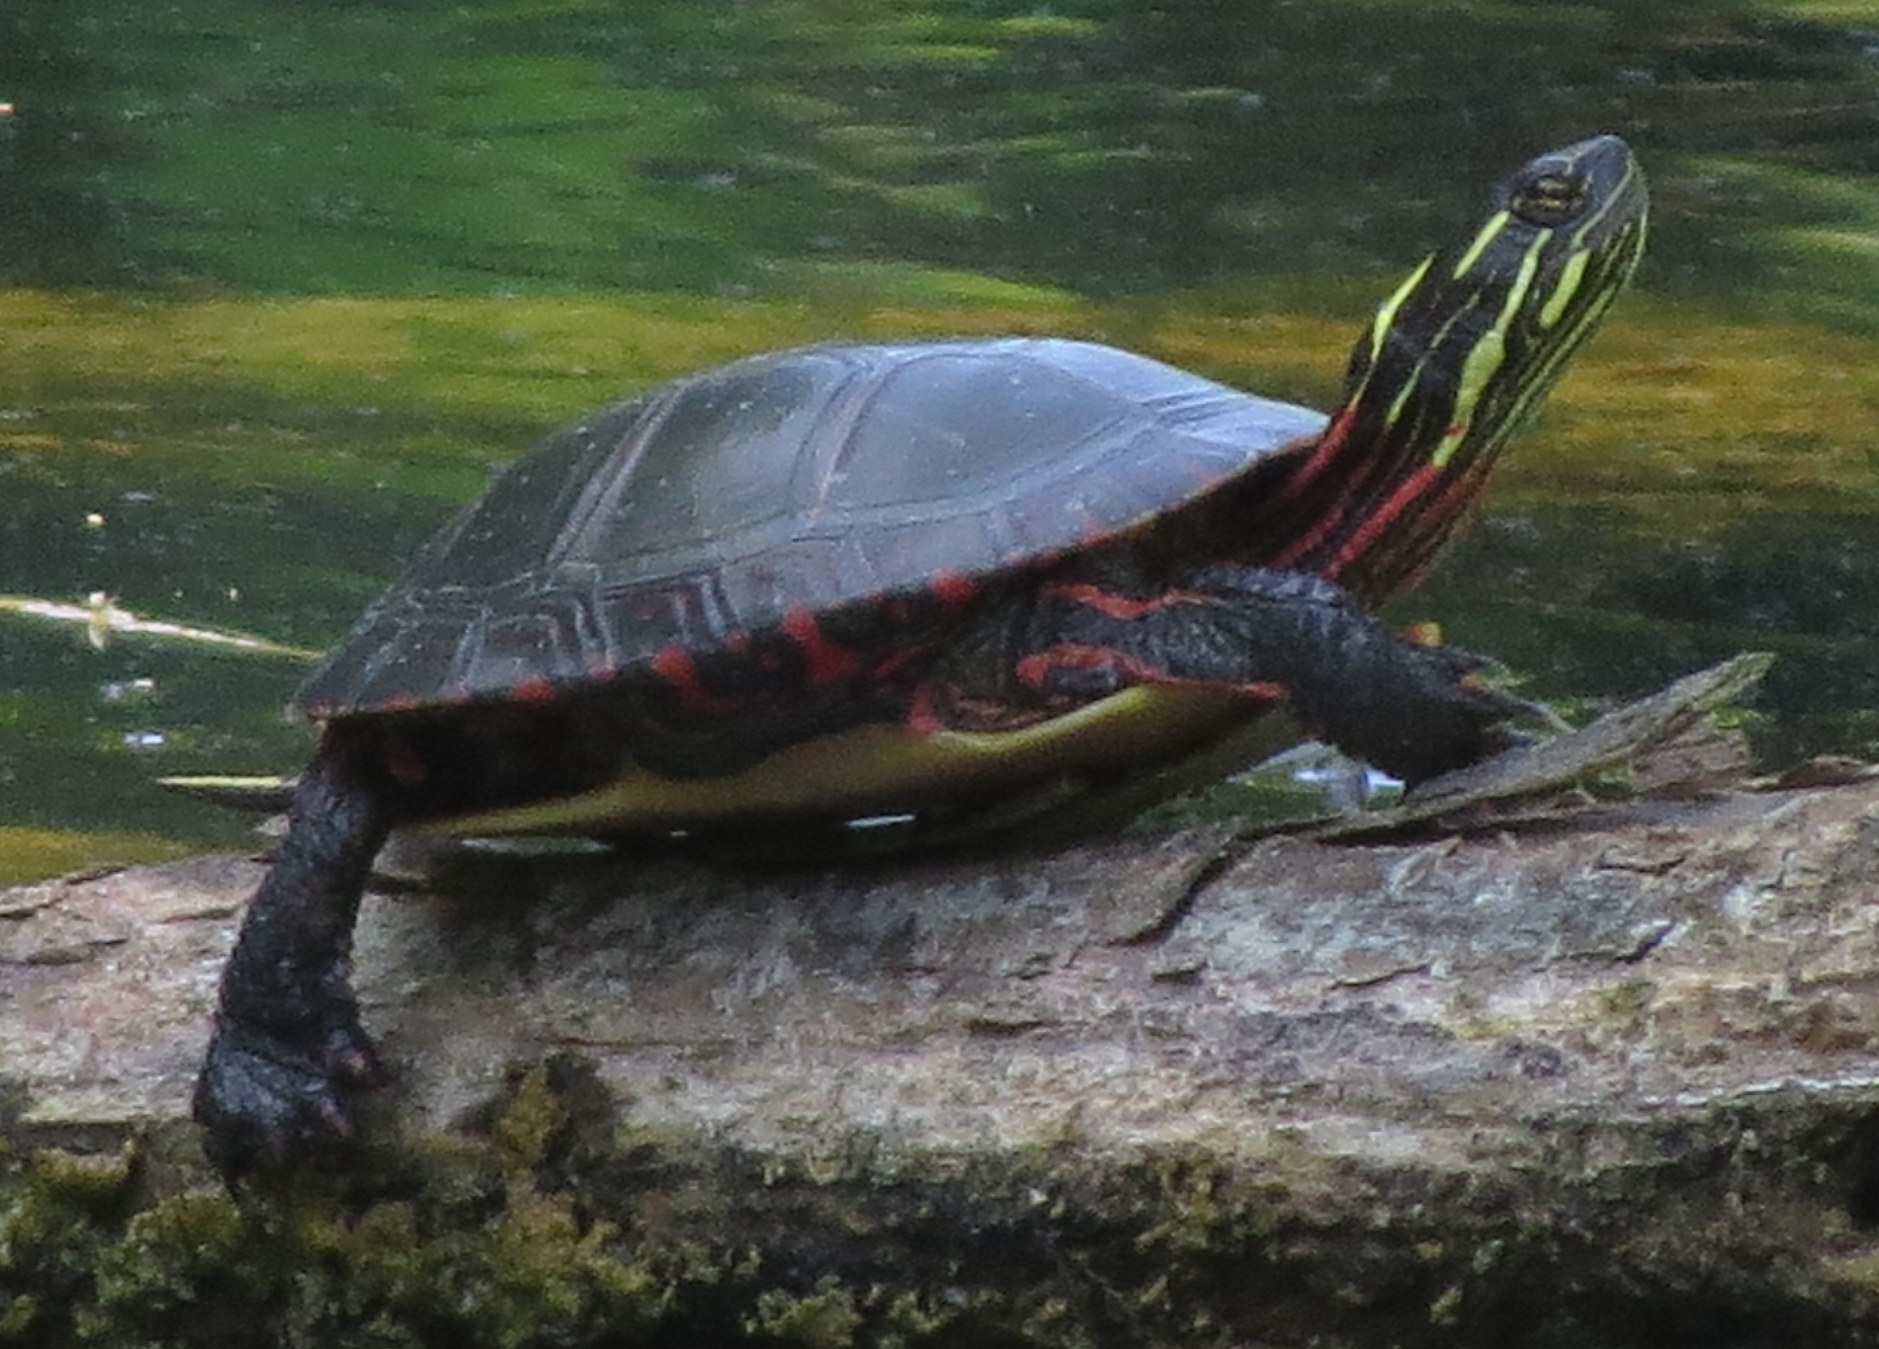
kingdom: Animalia
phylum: Chordata
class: Testudines
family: Emydidae
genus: Chrysemys
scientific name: Chrysemys picta
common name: Painted turtle
